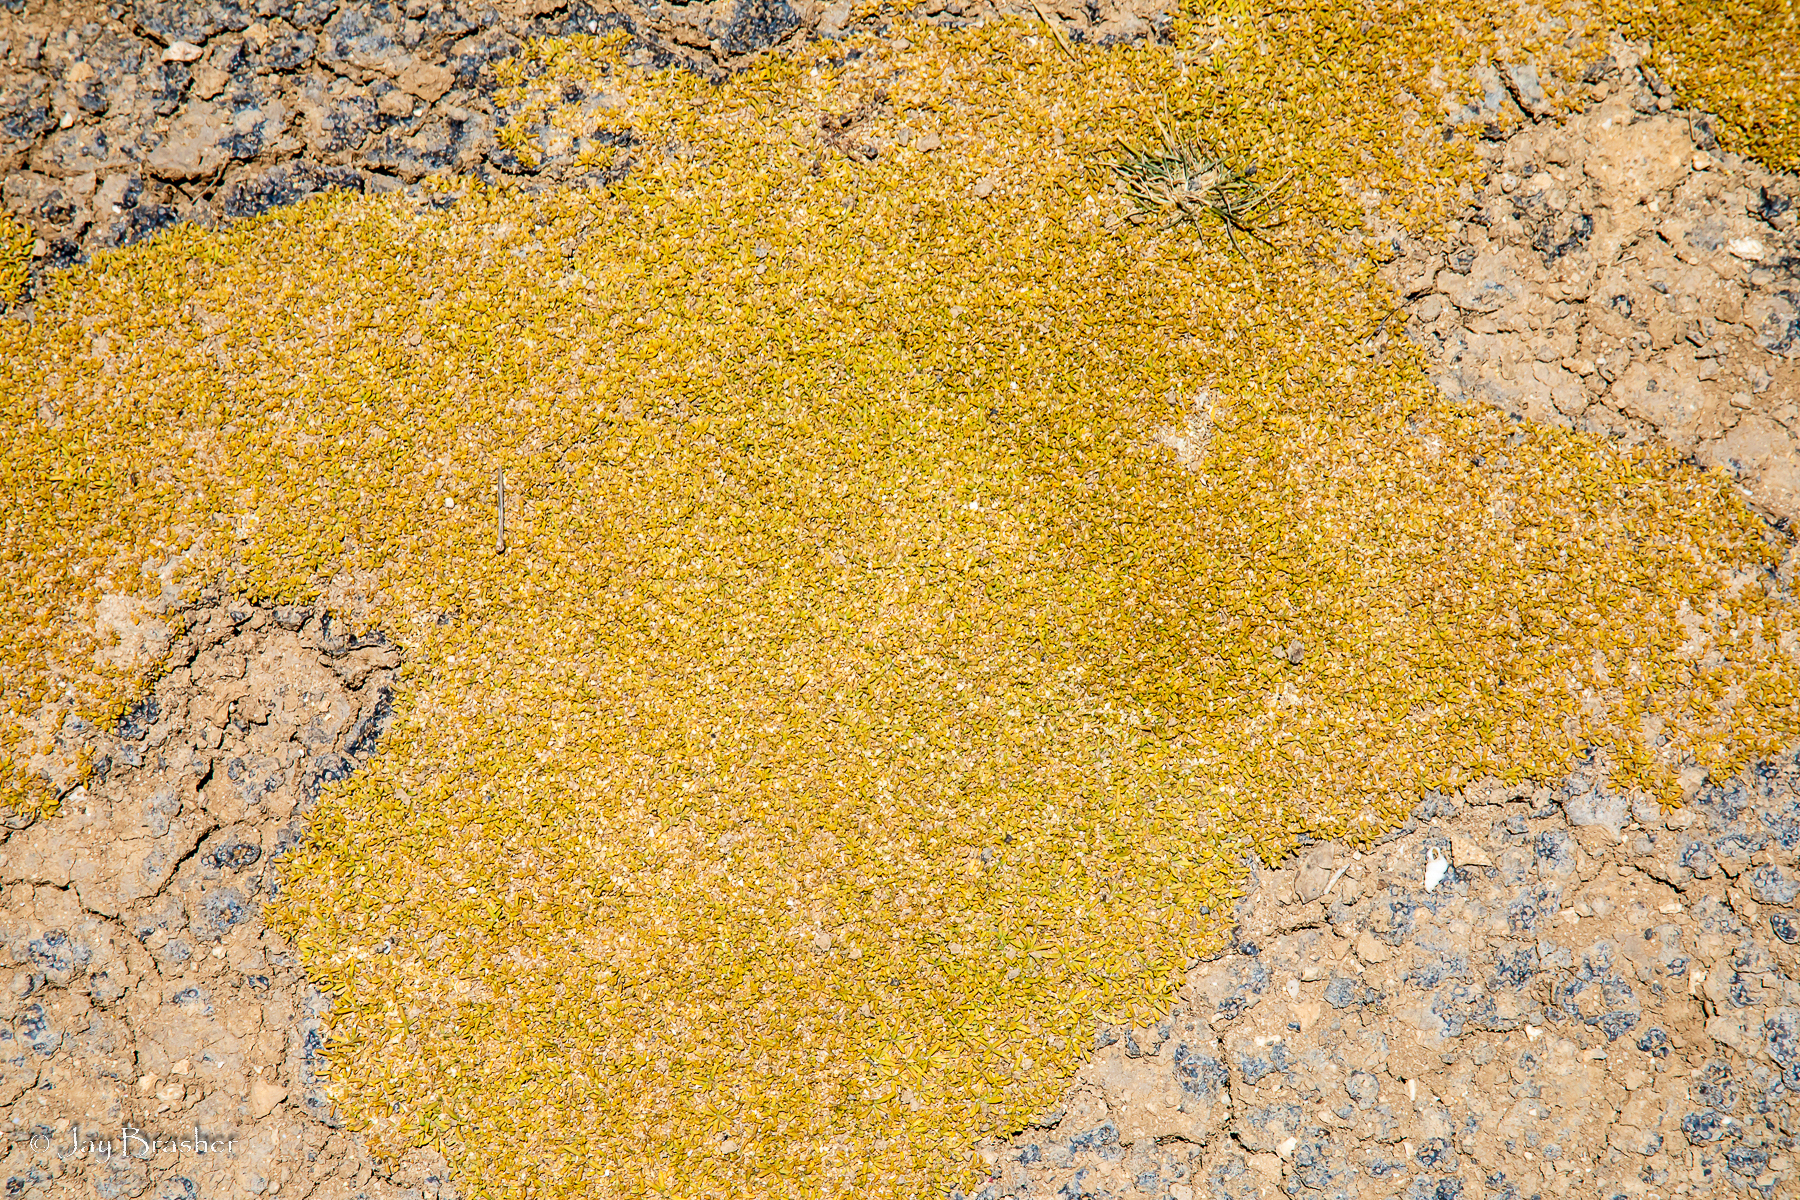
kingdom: Plantae
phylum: Tracheophyta
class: Magnoliopsida
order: Caryophyllales
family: Amaranthaceae
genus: Gomphrena
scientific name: Gomphrena muscoides
